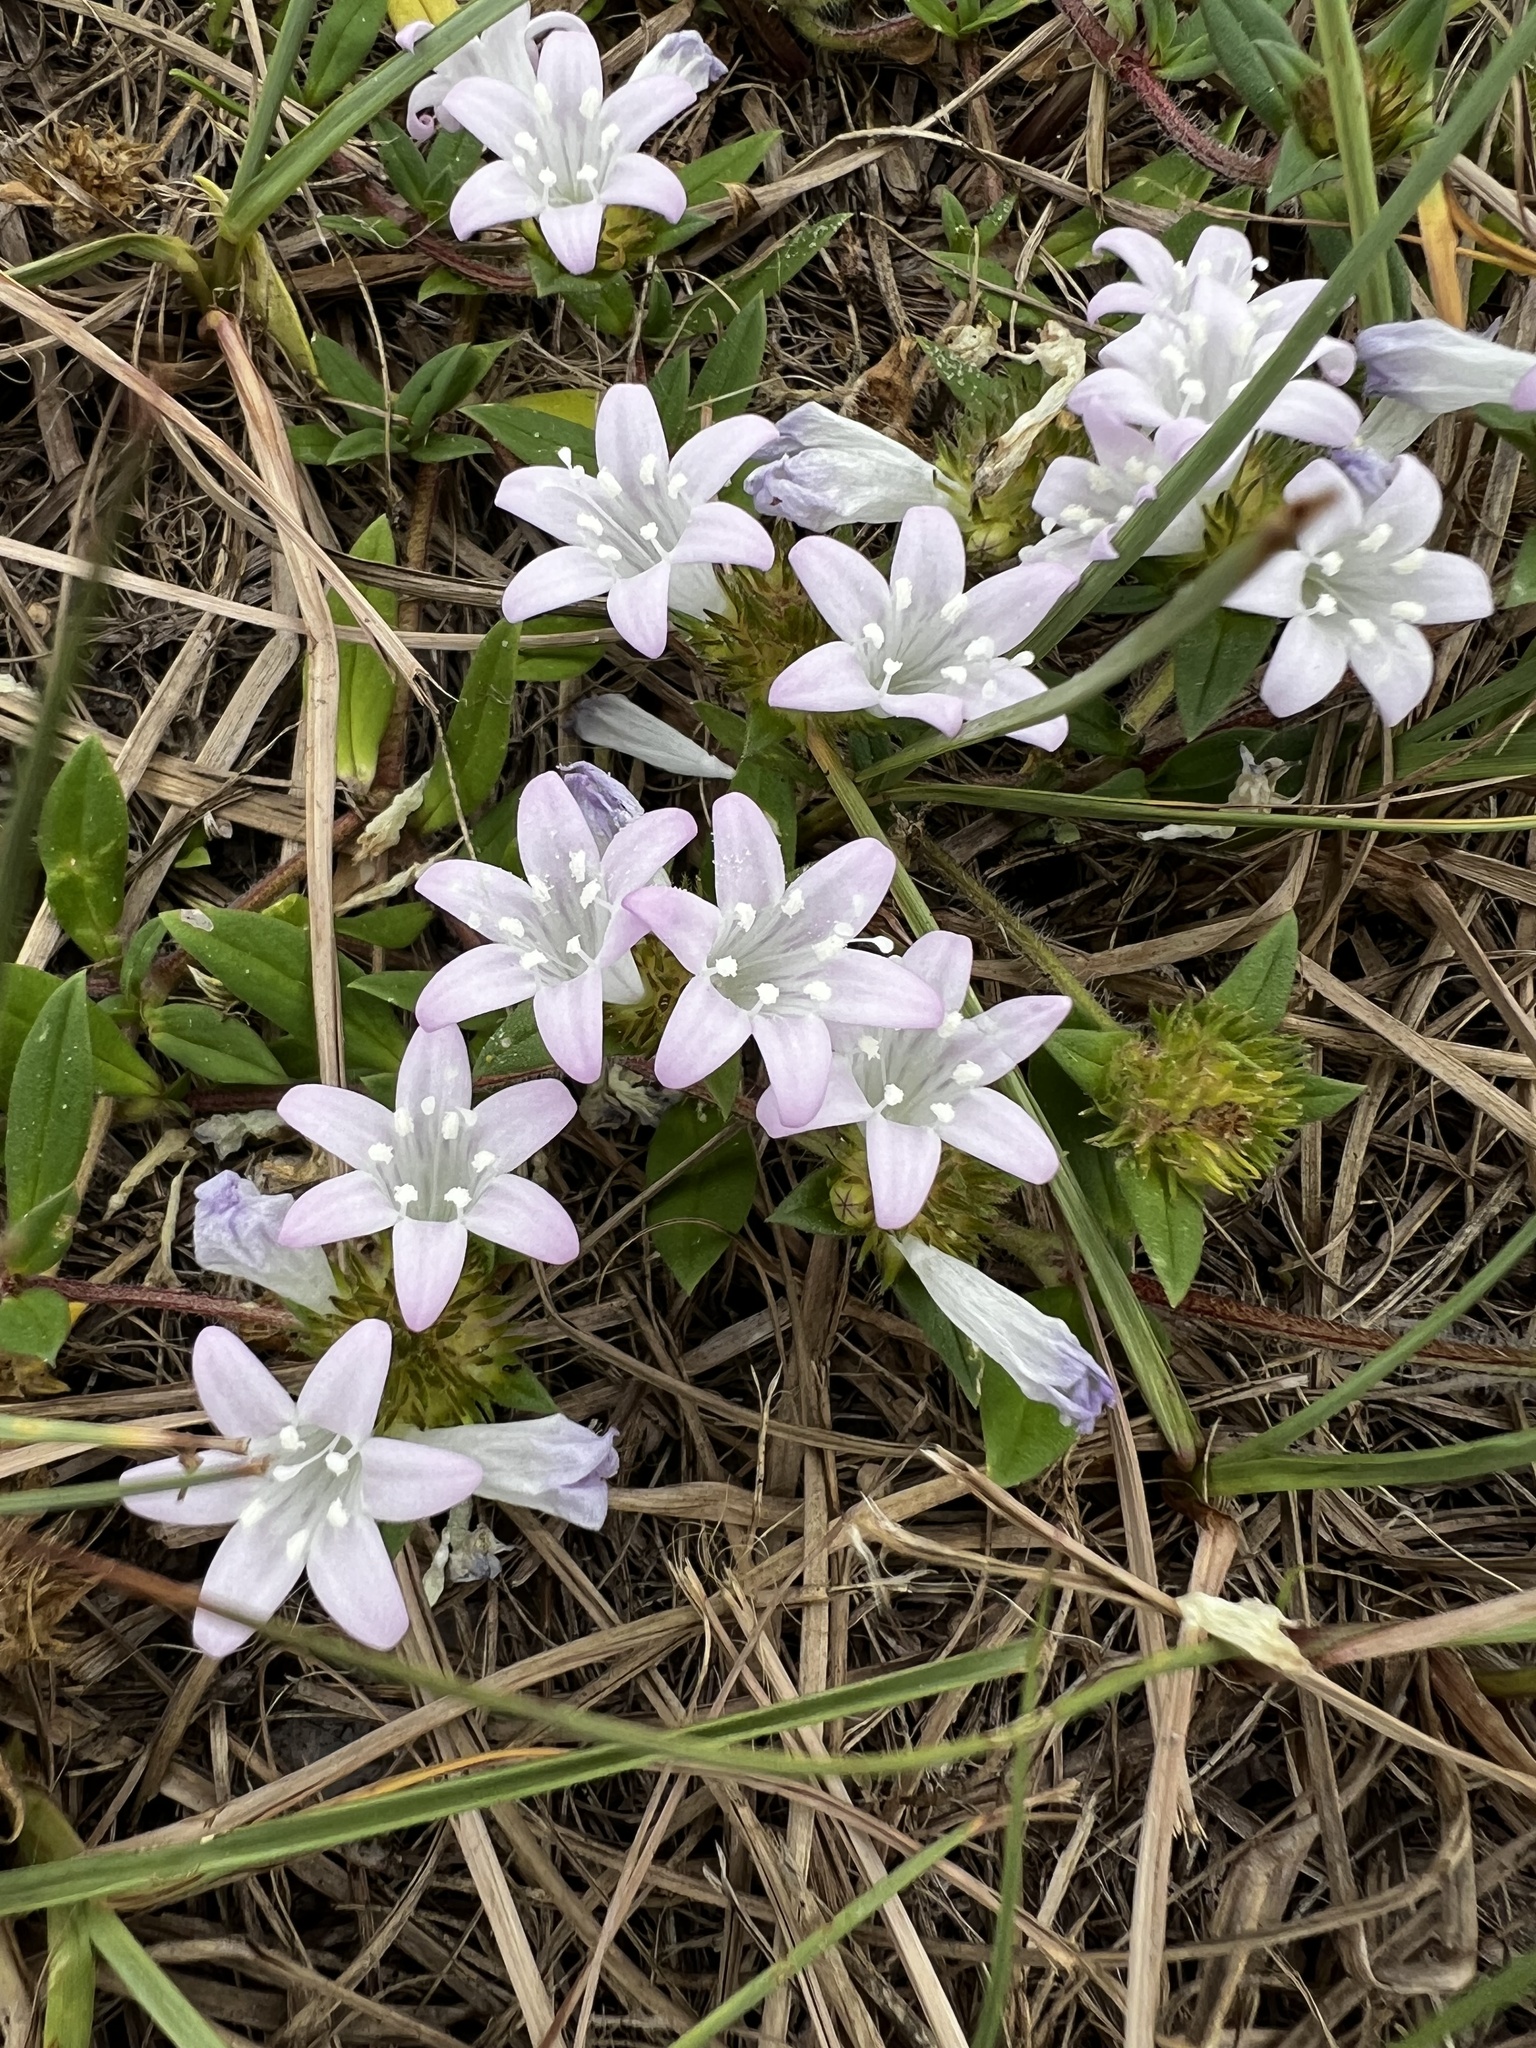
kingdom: Plantae
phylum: Tracheophyta
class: Magnoliopsida
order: Gentianales
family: Rubiaceae
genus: Richardia
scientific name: Richardia grandiflora
